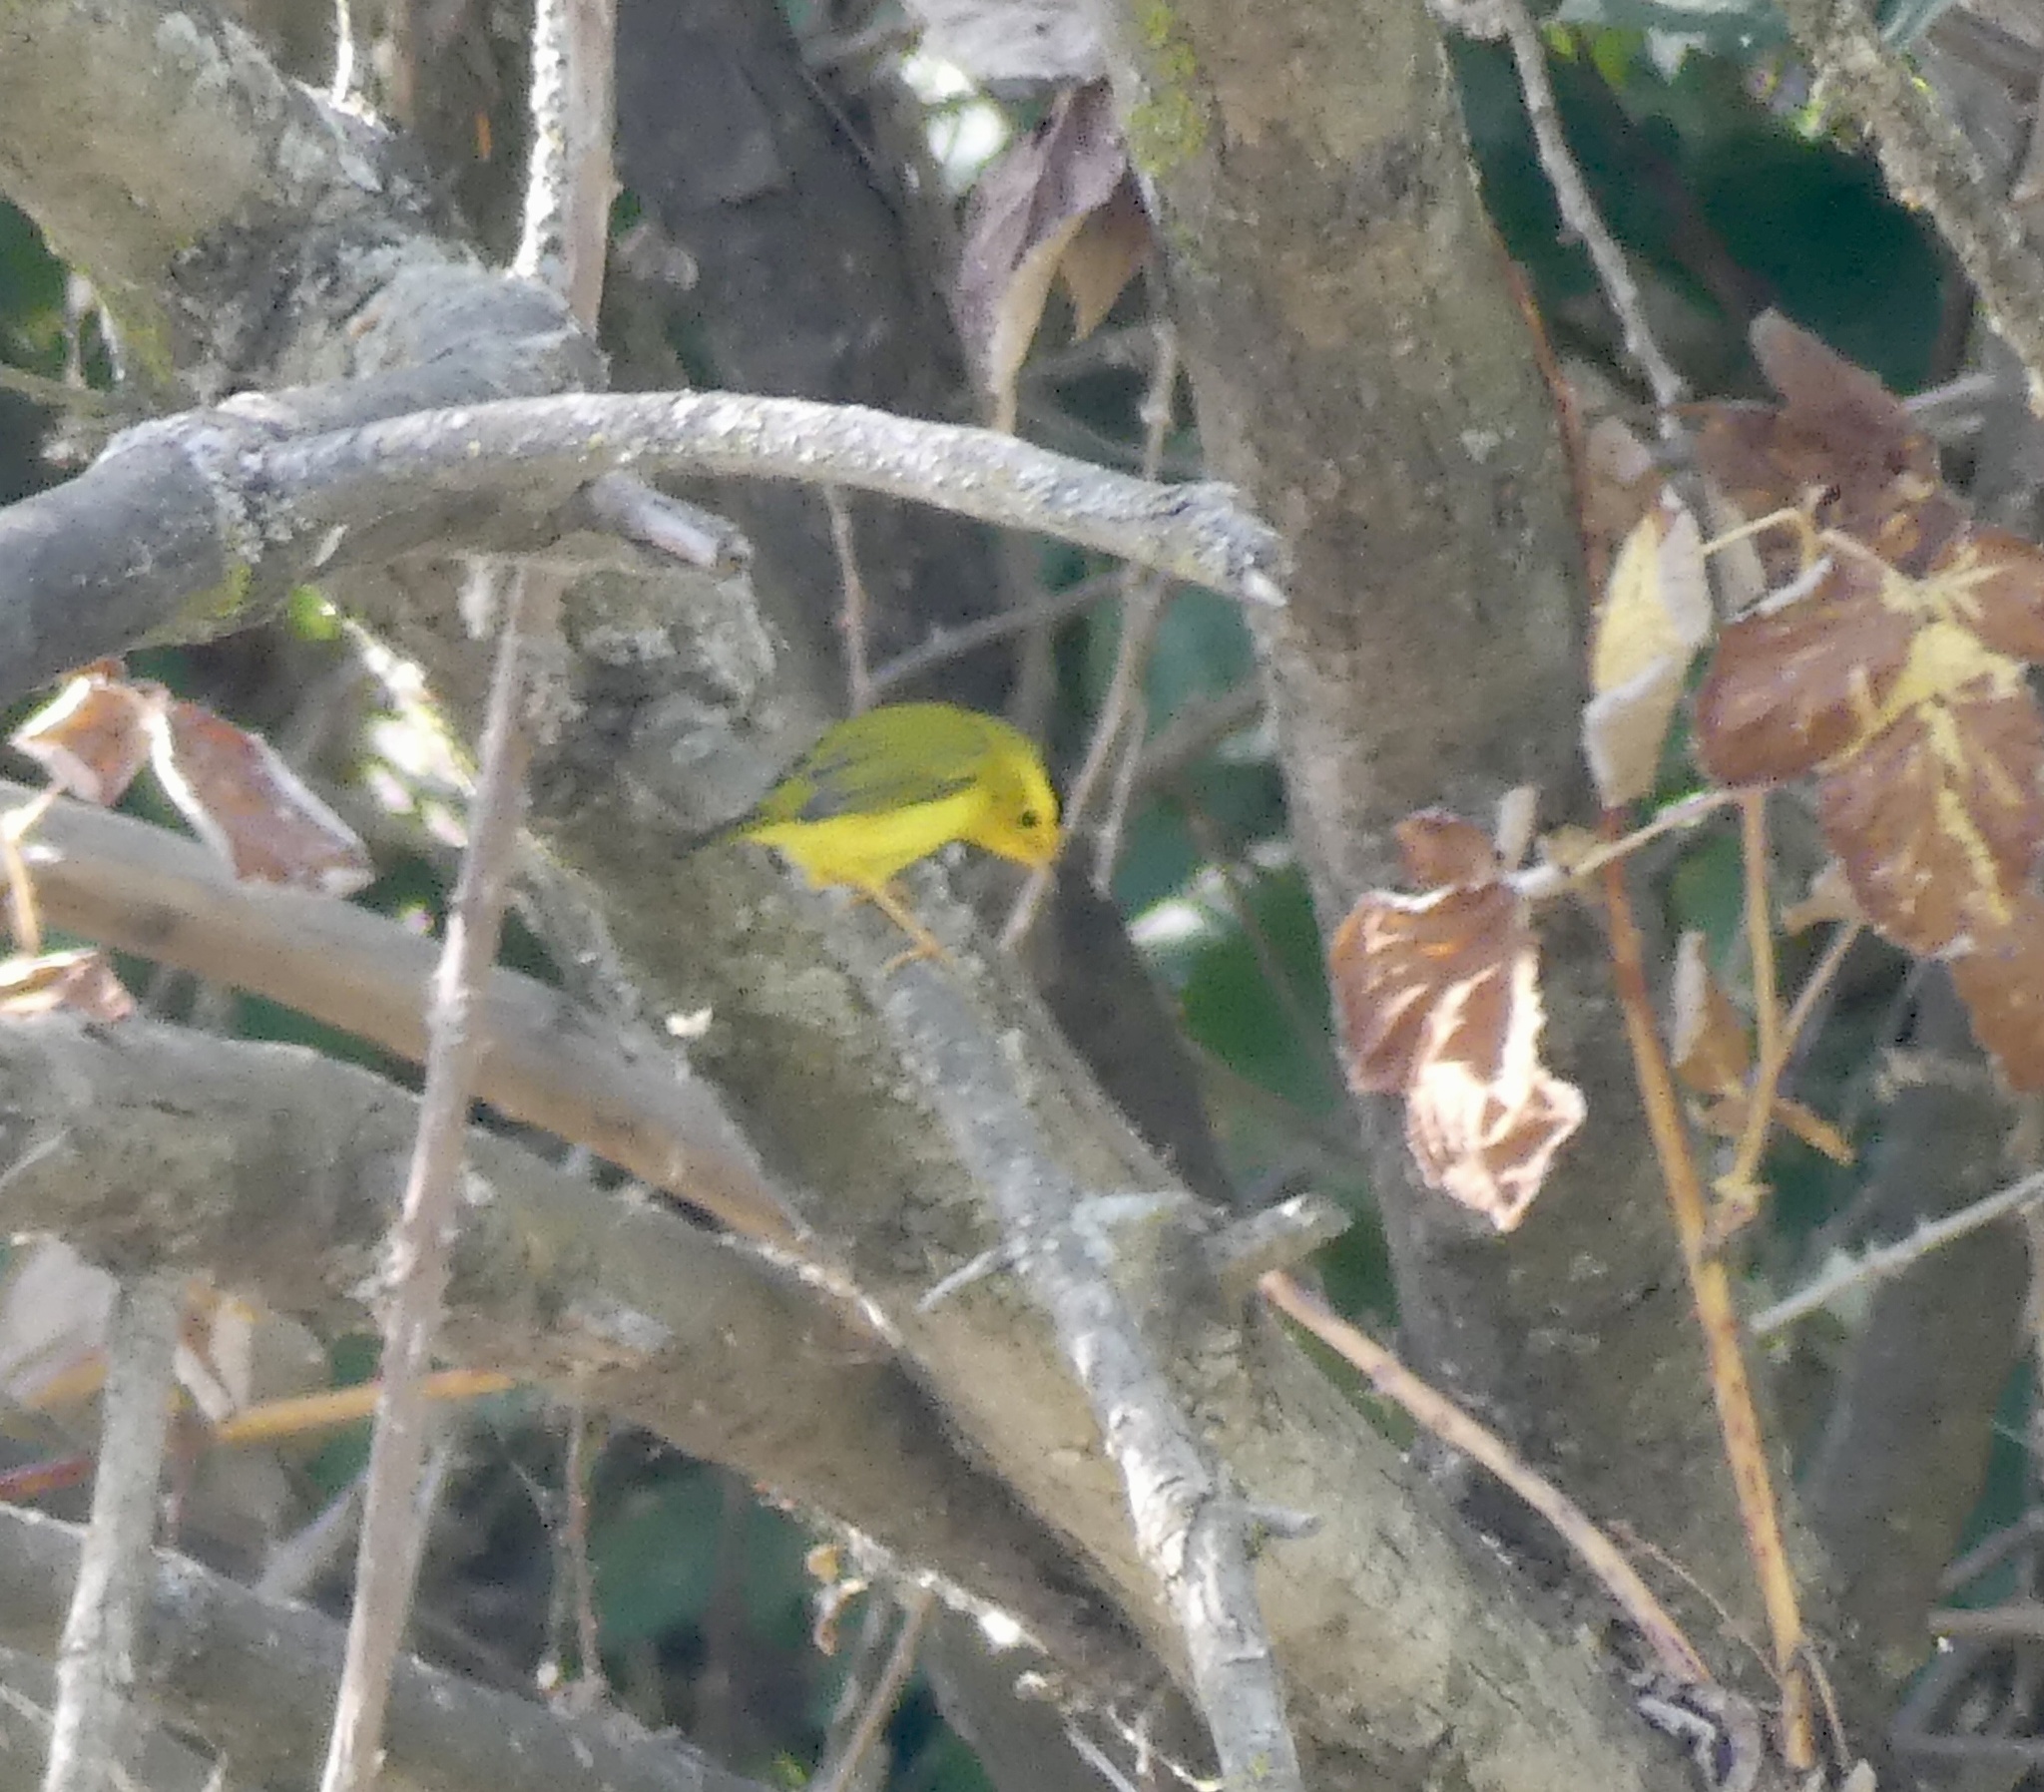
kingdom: Animalia
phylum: Chordata
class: Aves
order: Passeriformes
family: Parulidae
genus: Cardellina
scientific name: Cardellina pusilla
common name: Wilson's warbler
